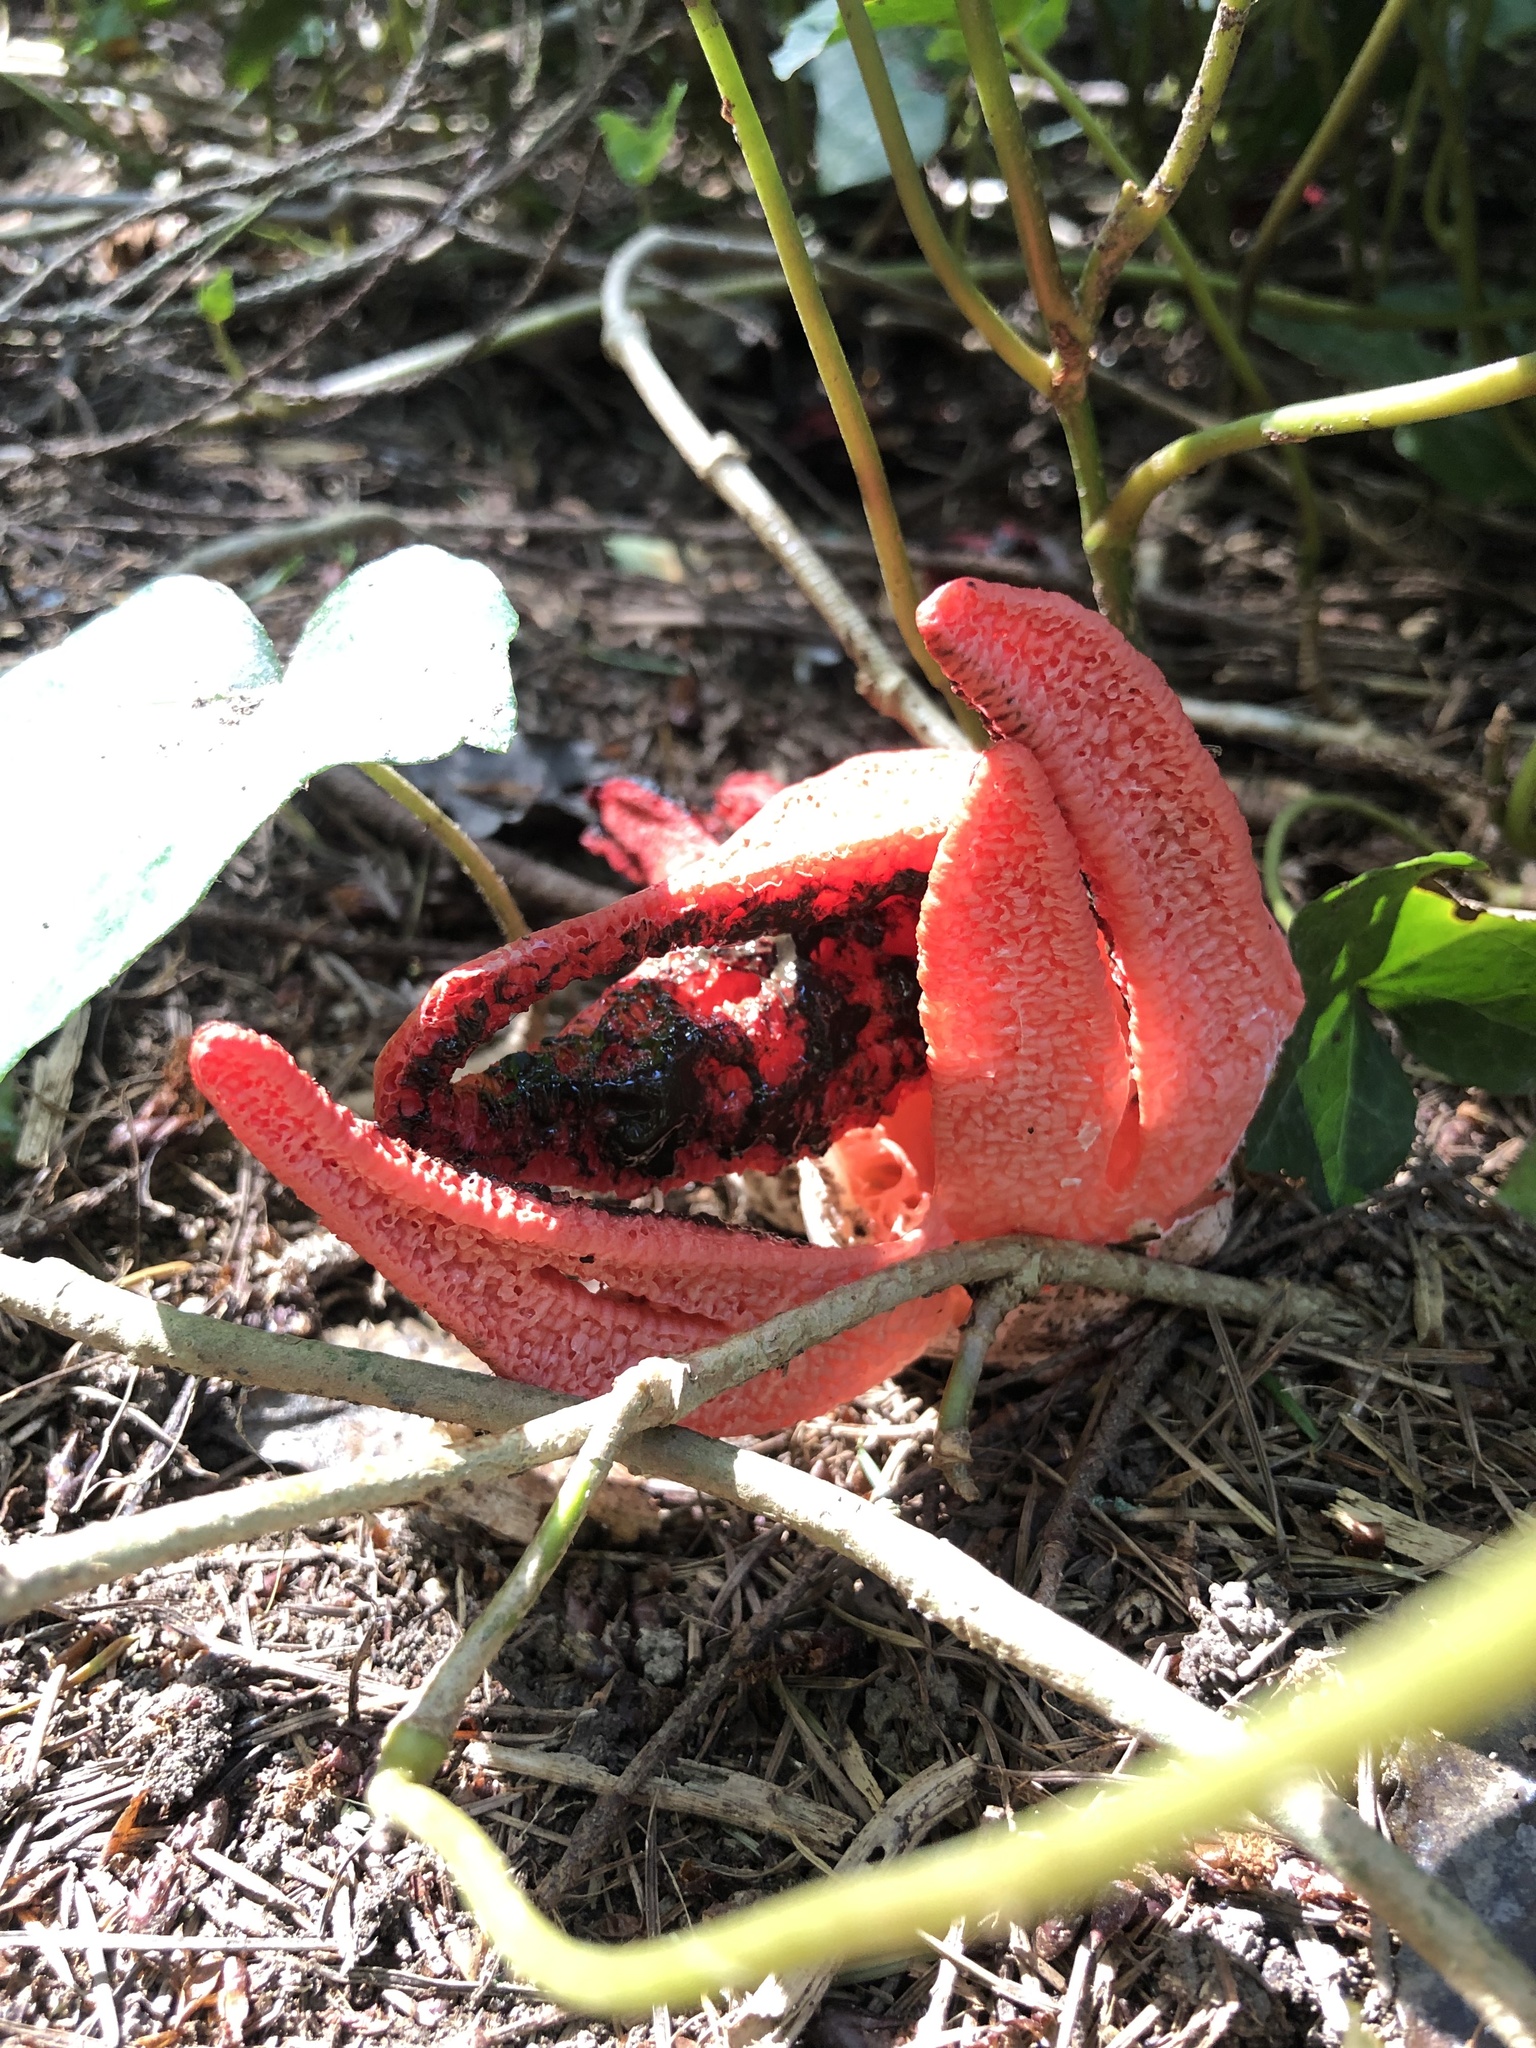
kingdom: Fungi
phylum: Basidiomycota
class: Agaricomycetes
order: Phallales
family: Phallaceae
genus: Clathrus
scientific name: Clathrus archeri
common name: Devil's fingers
